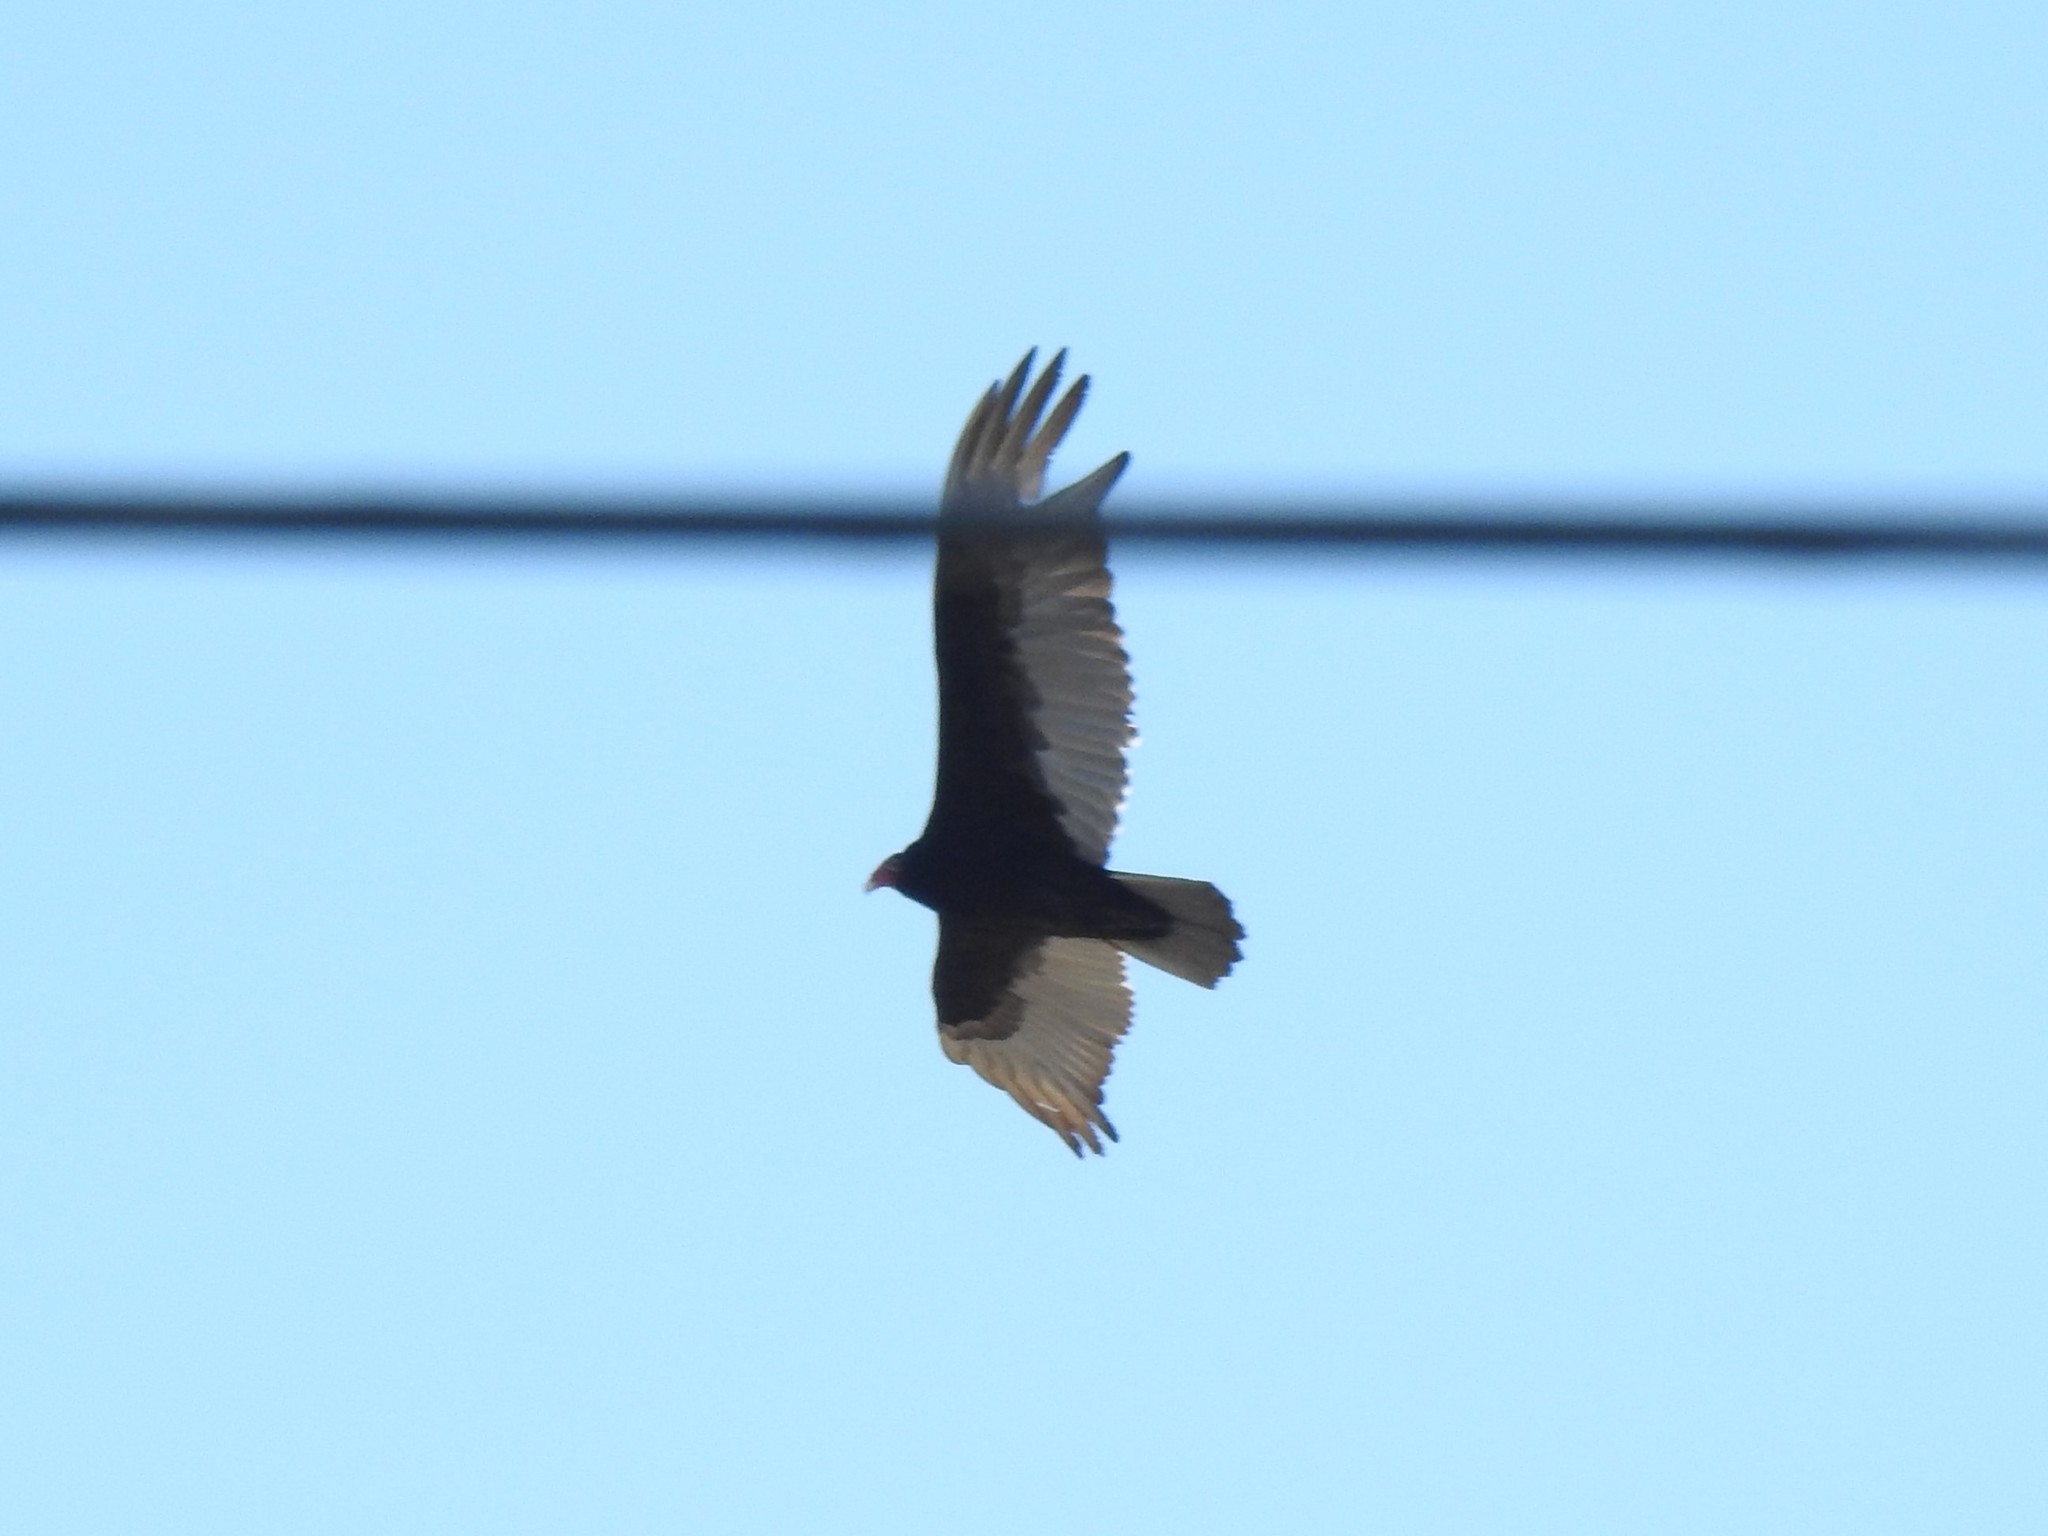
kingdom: Animalia
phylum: Chordata
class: Aves
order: Accipitriformes
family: Cathartidae
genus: Cathartes
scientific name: Cathartes aura
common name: Turkey vulture
